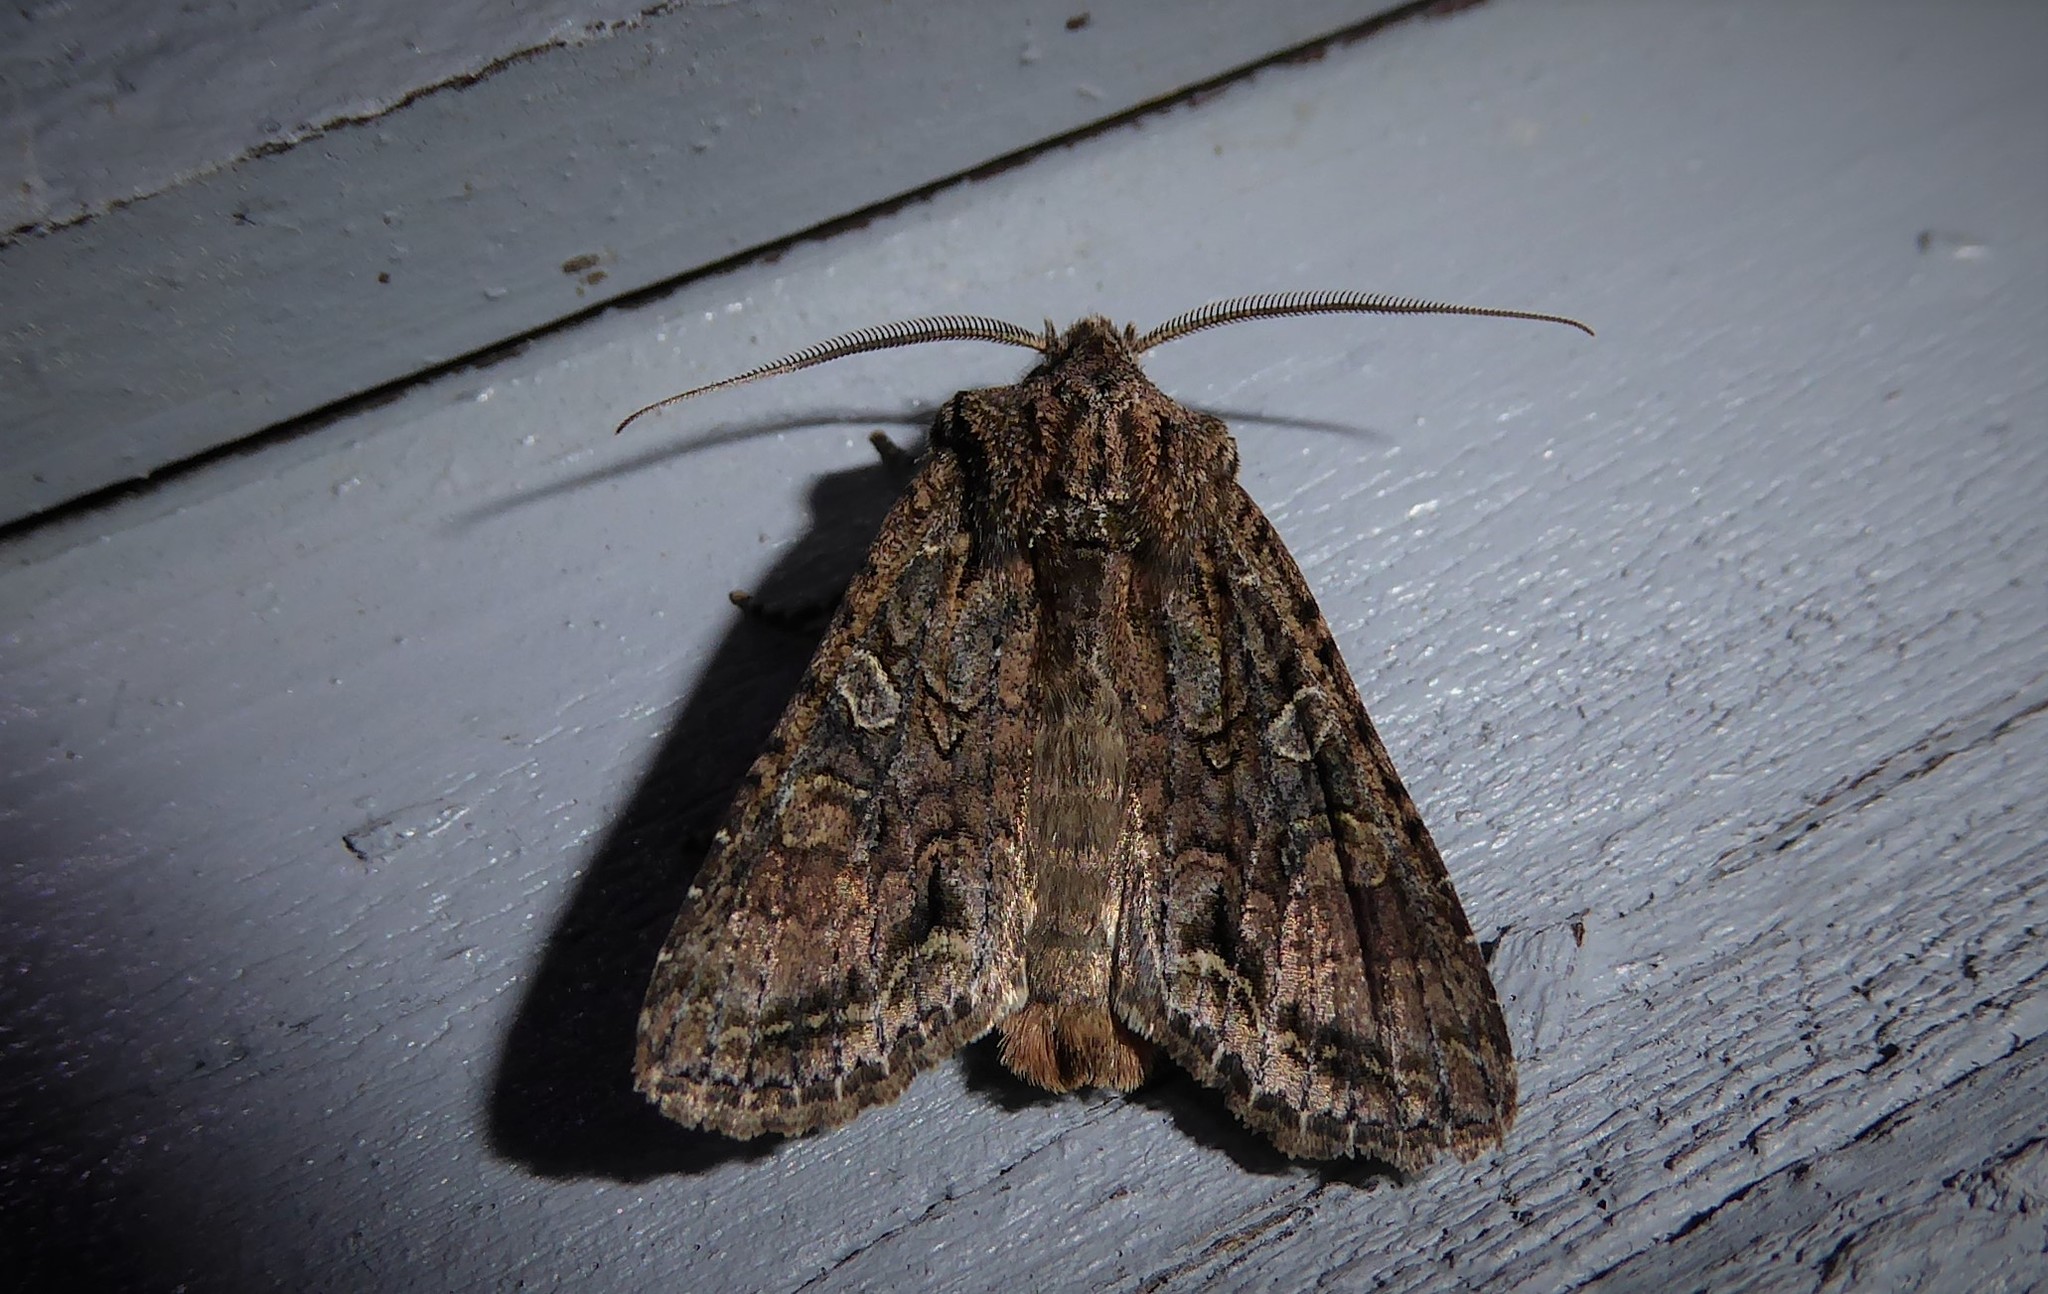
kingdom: Animalia
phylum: Arthropoda
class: Insecta
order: Lepidoptera
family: Noctuidae
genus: Ichneutica
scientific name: Ichneutica mutans
